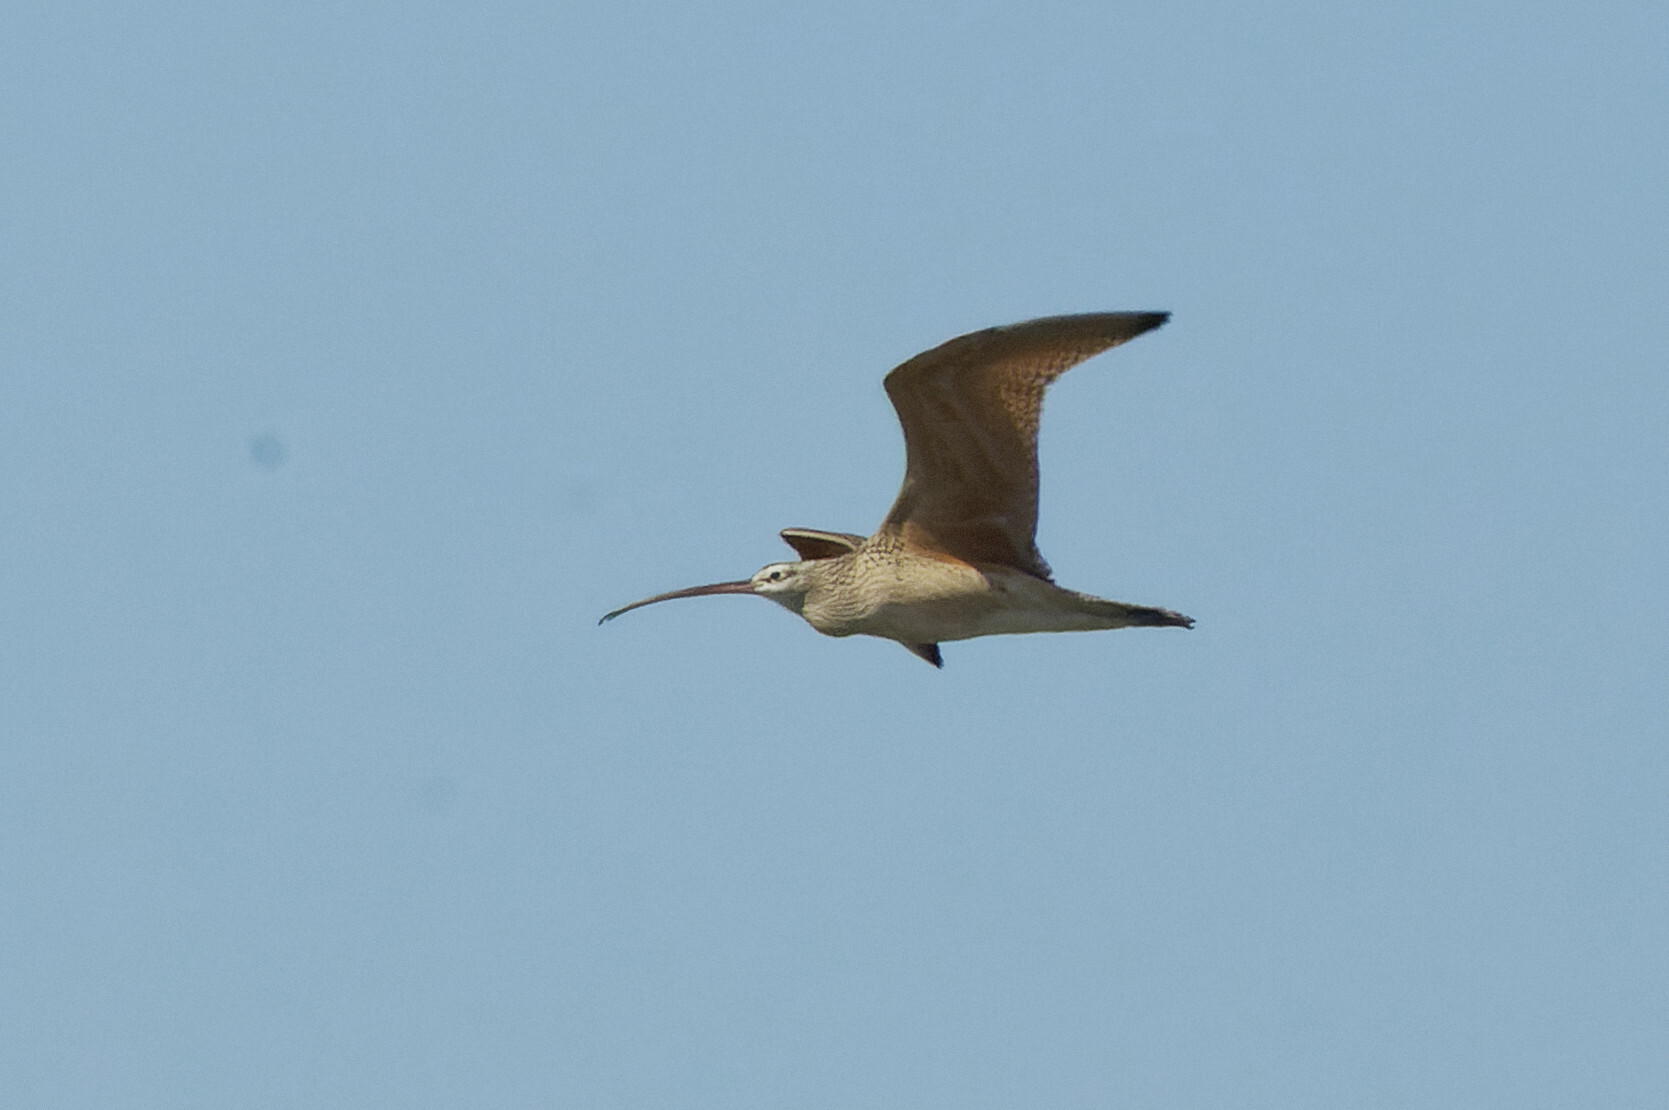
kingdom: Animalia
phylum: Chordata
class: Aves
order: Charadriiformes
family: Scolopacidae
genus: Numenius
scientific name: Numenius americanus
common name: Long-billed curlew
